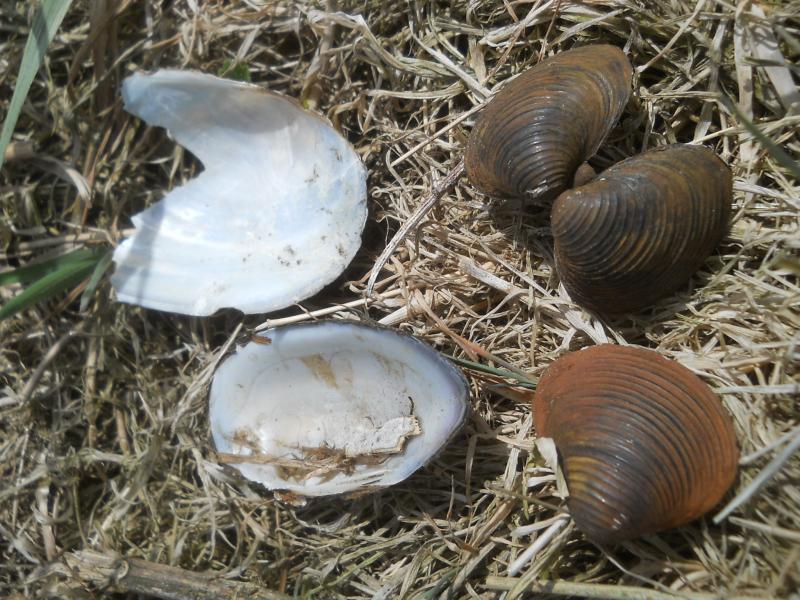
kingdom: Animalia
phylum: Mollusca
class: Bivalvia
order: Venerida
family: Cyrenidae
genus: Corbicula
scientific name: Corbicula fluminea
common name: Asian clam
